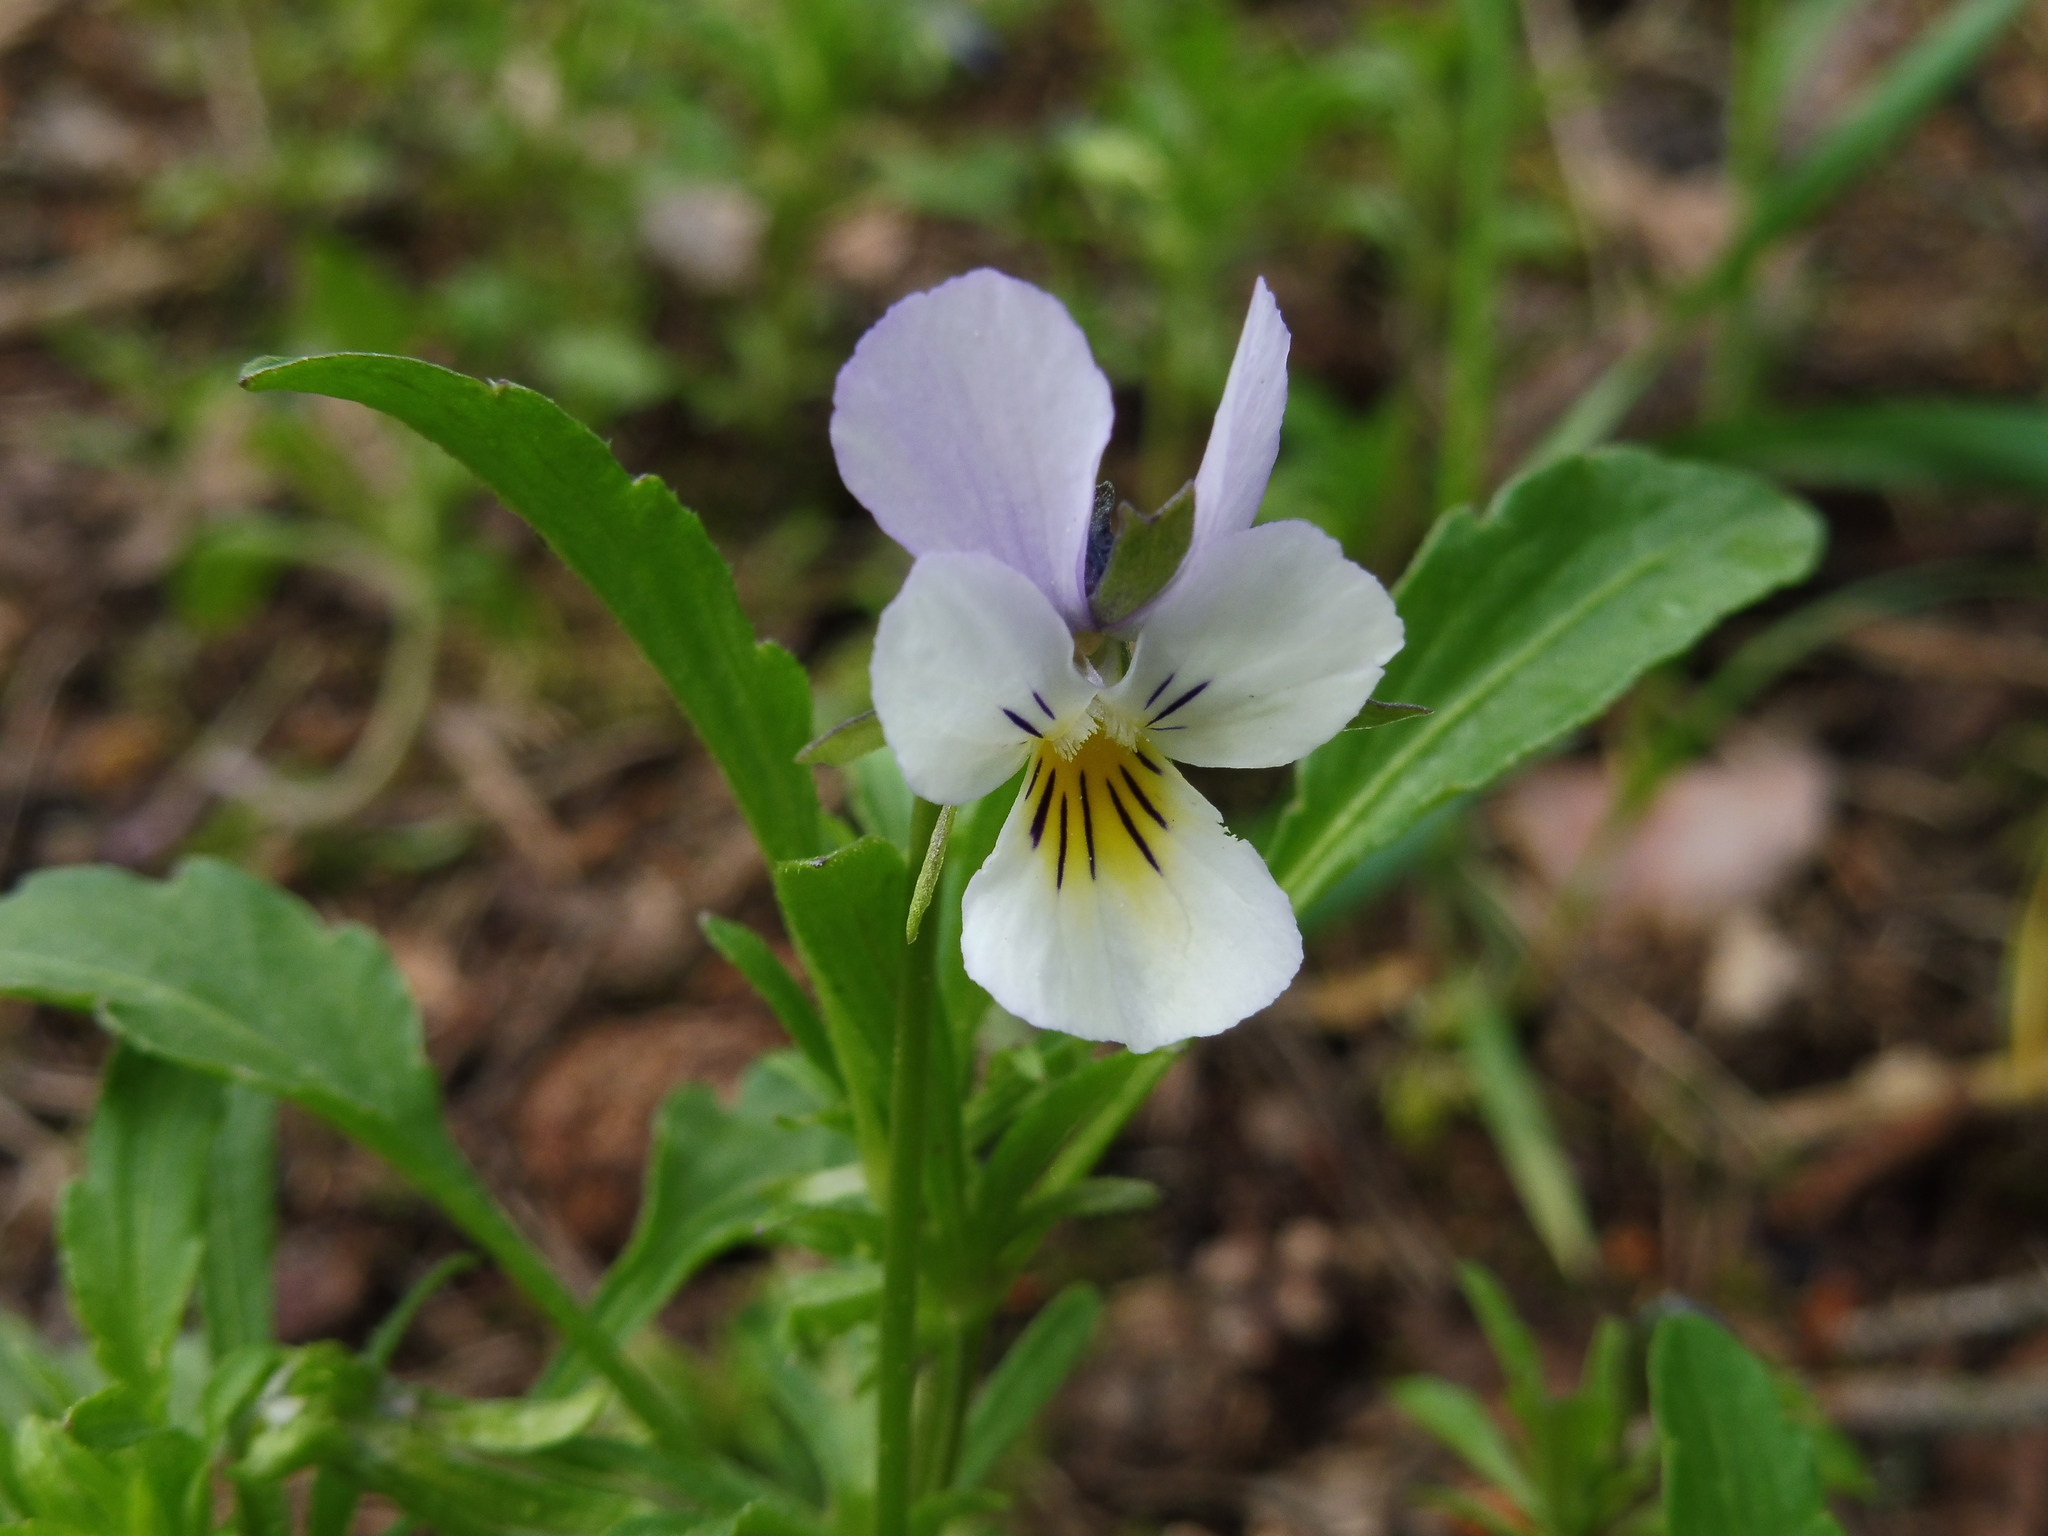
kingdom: Plantae
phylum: Tracheophyta
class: Magnoliopsida
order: Malpighiales
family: Violaceae
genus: Viola
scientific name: Viola tricolor
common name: Pansy
